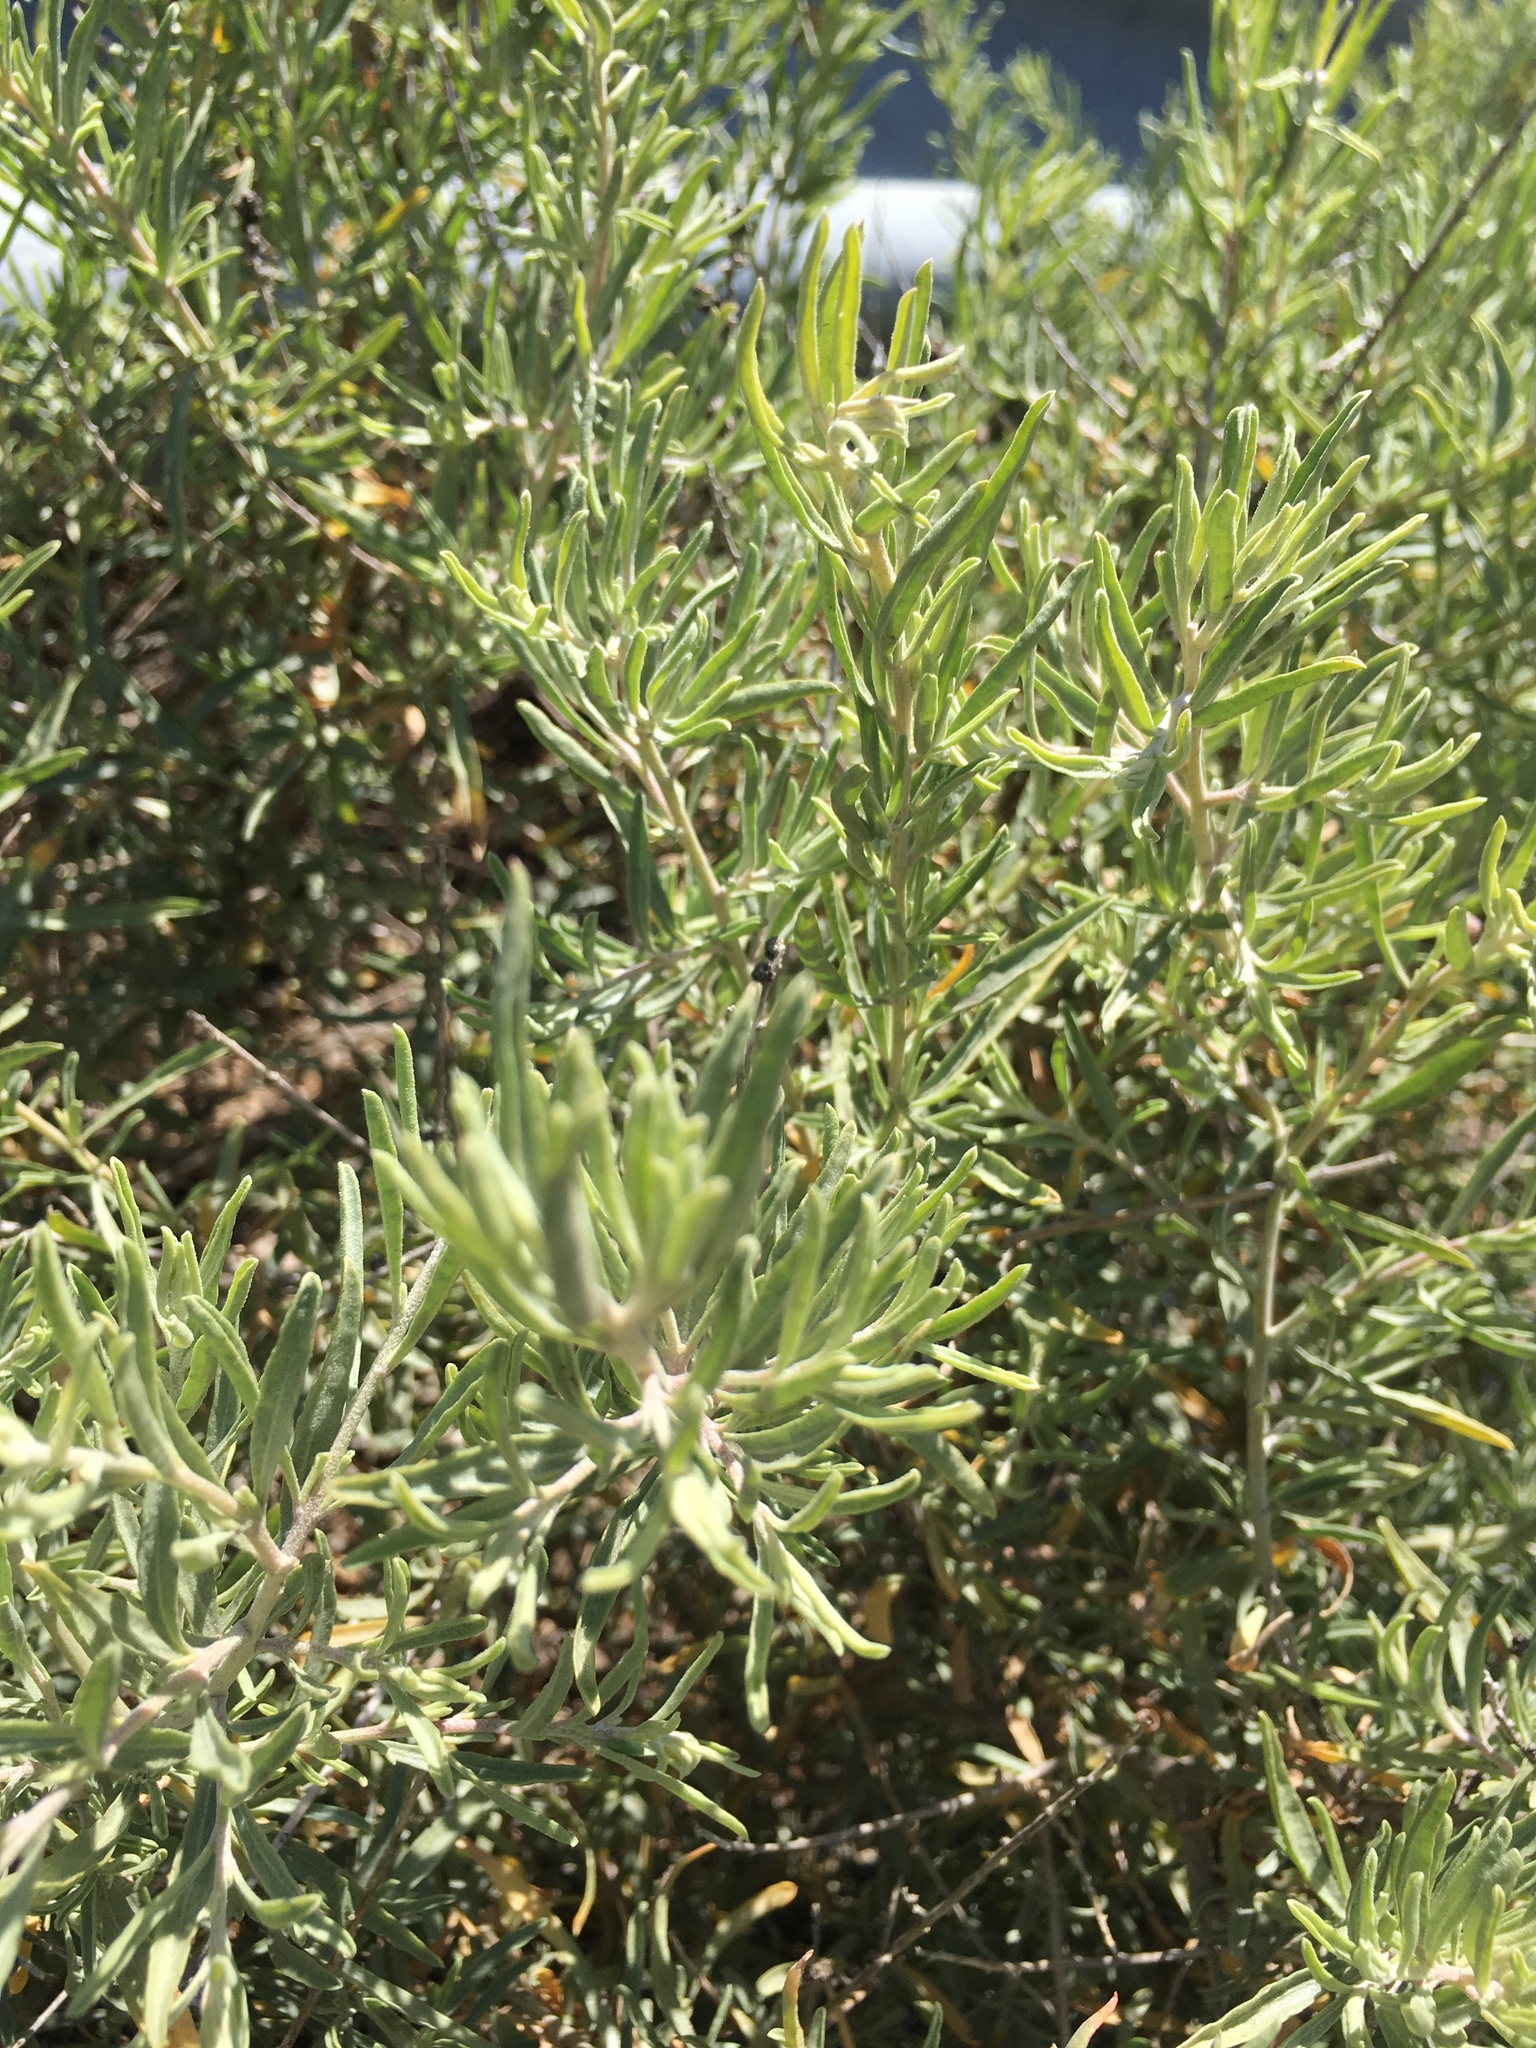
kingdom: Plantae
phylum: Tracheophyta
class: Magnoliopsida
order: Caryophyllales
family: Amaranthaceae
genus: Atriplex
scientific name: Atriplex canescens
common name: Four-wing saltbush
